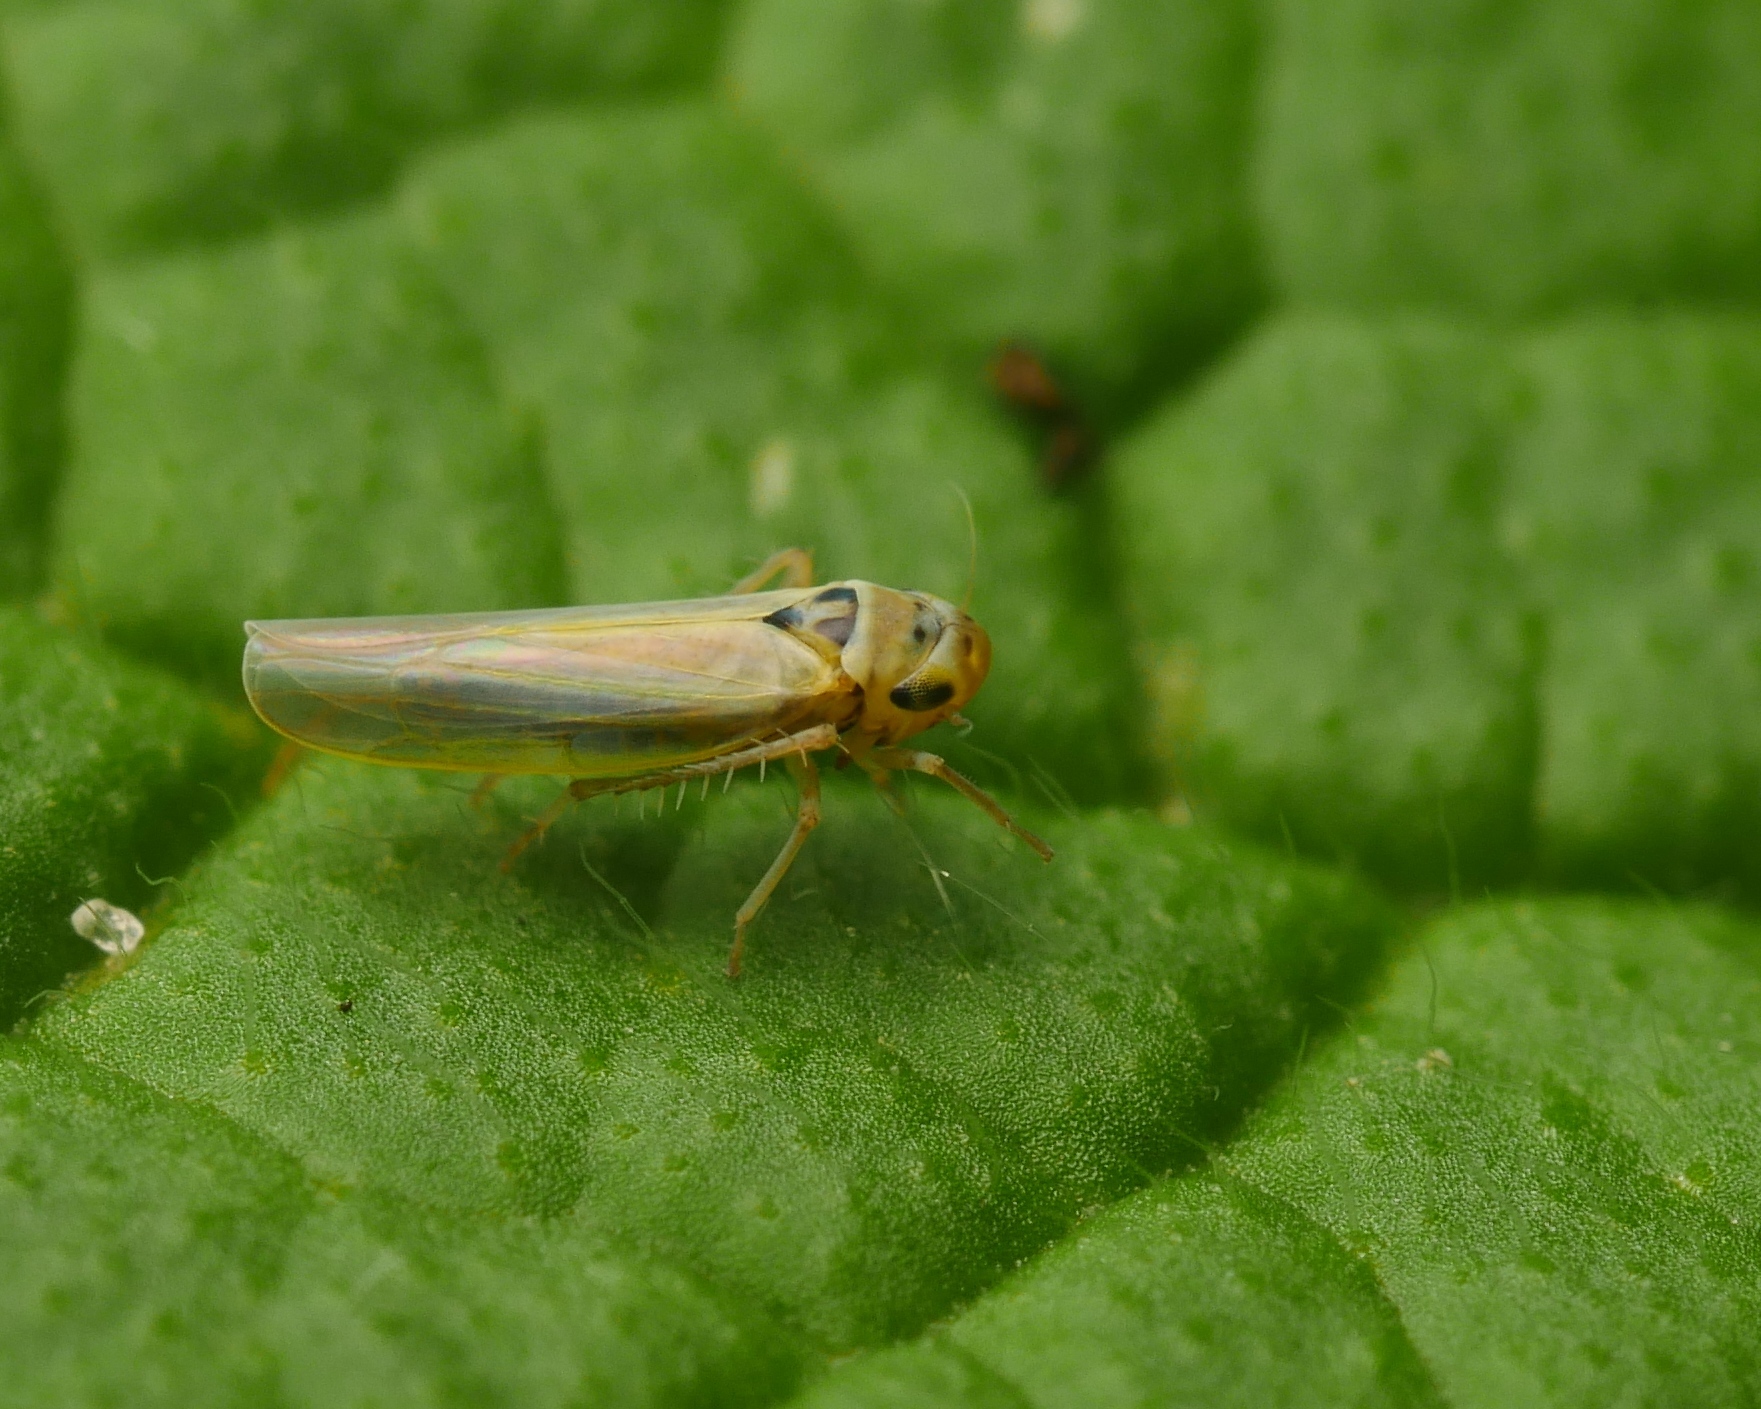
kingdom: Animalia
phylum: Arthropoda
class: Insecta
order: Hemiptera
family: Cicadellidae
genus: Zyginidia
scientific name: Zyginidia
